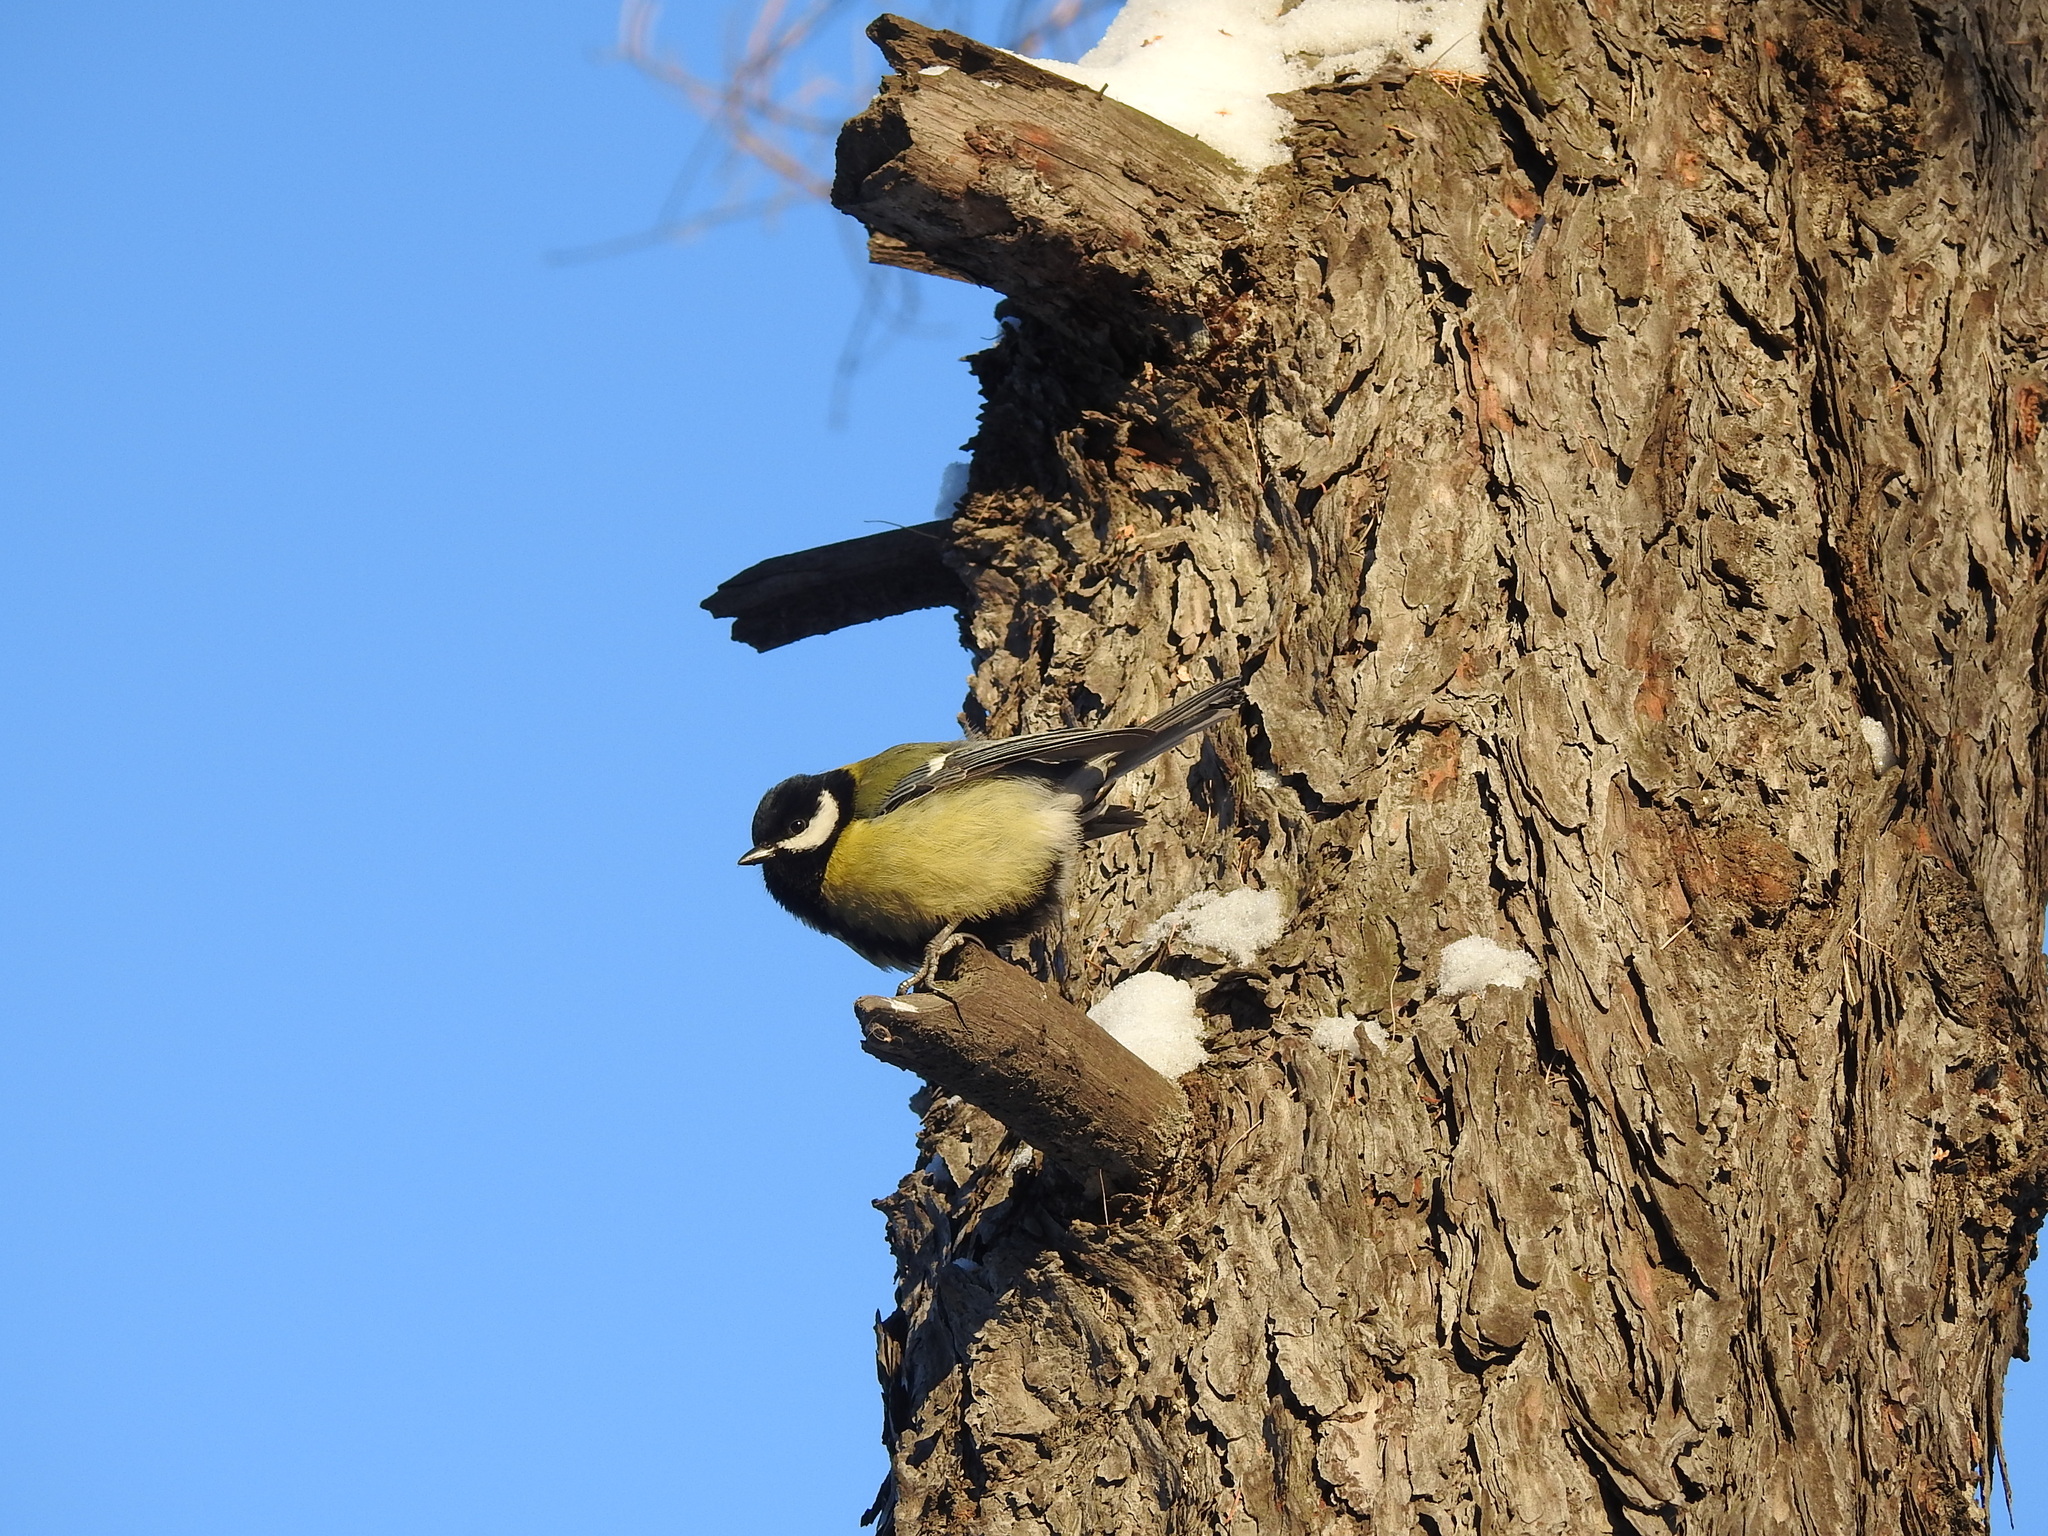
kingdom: Animalia
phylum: Chordata
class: Aves
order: Passeriformes
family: Paridae
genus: Parus
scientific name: Parus major
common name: Great tit
